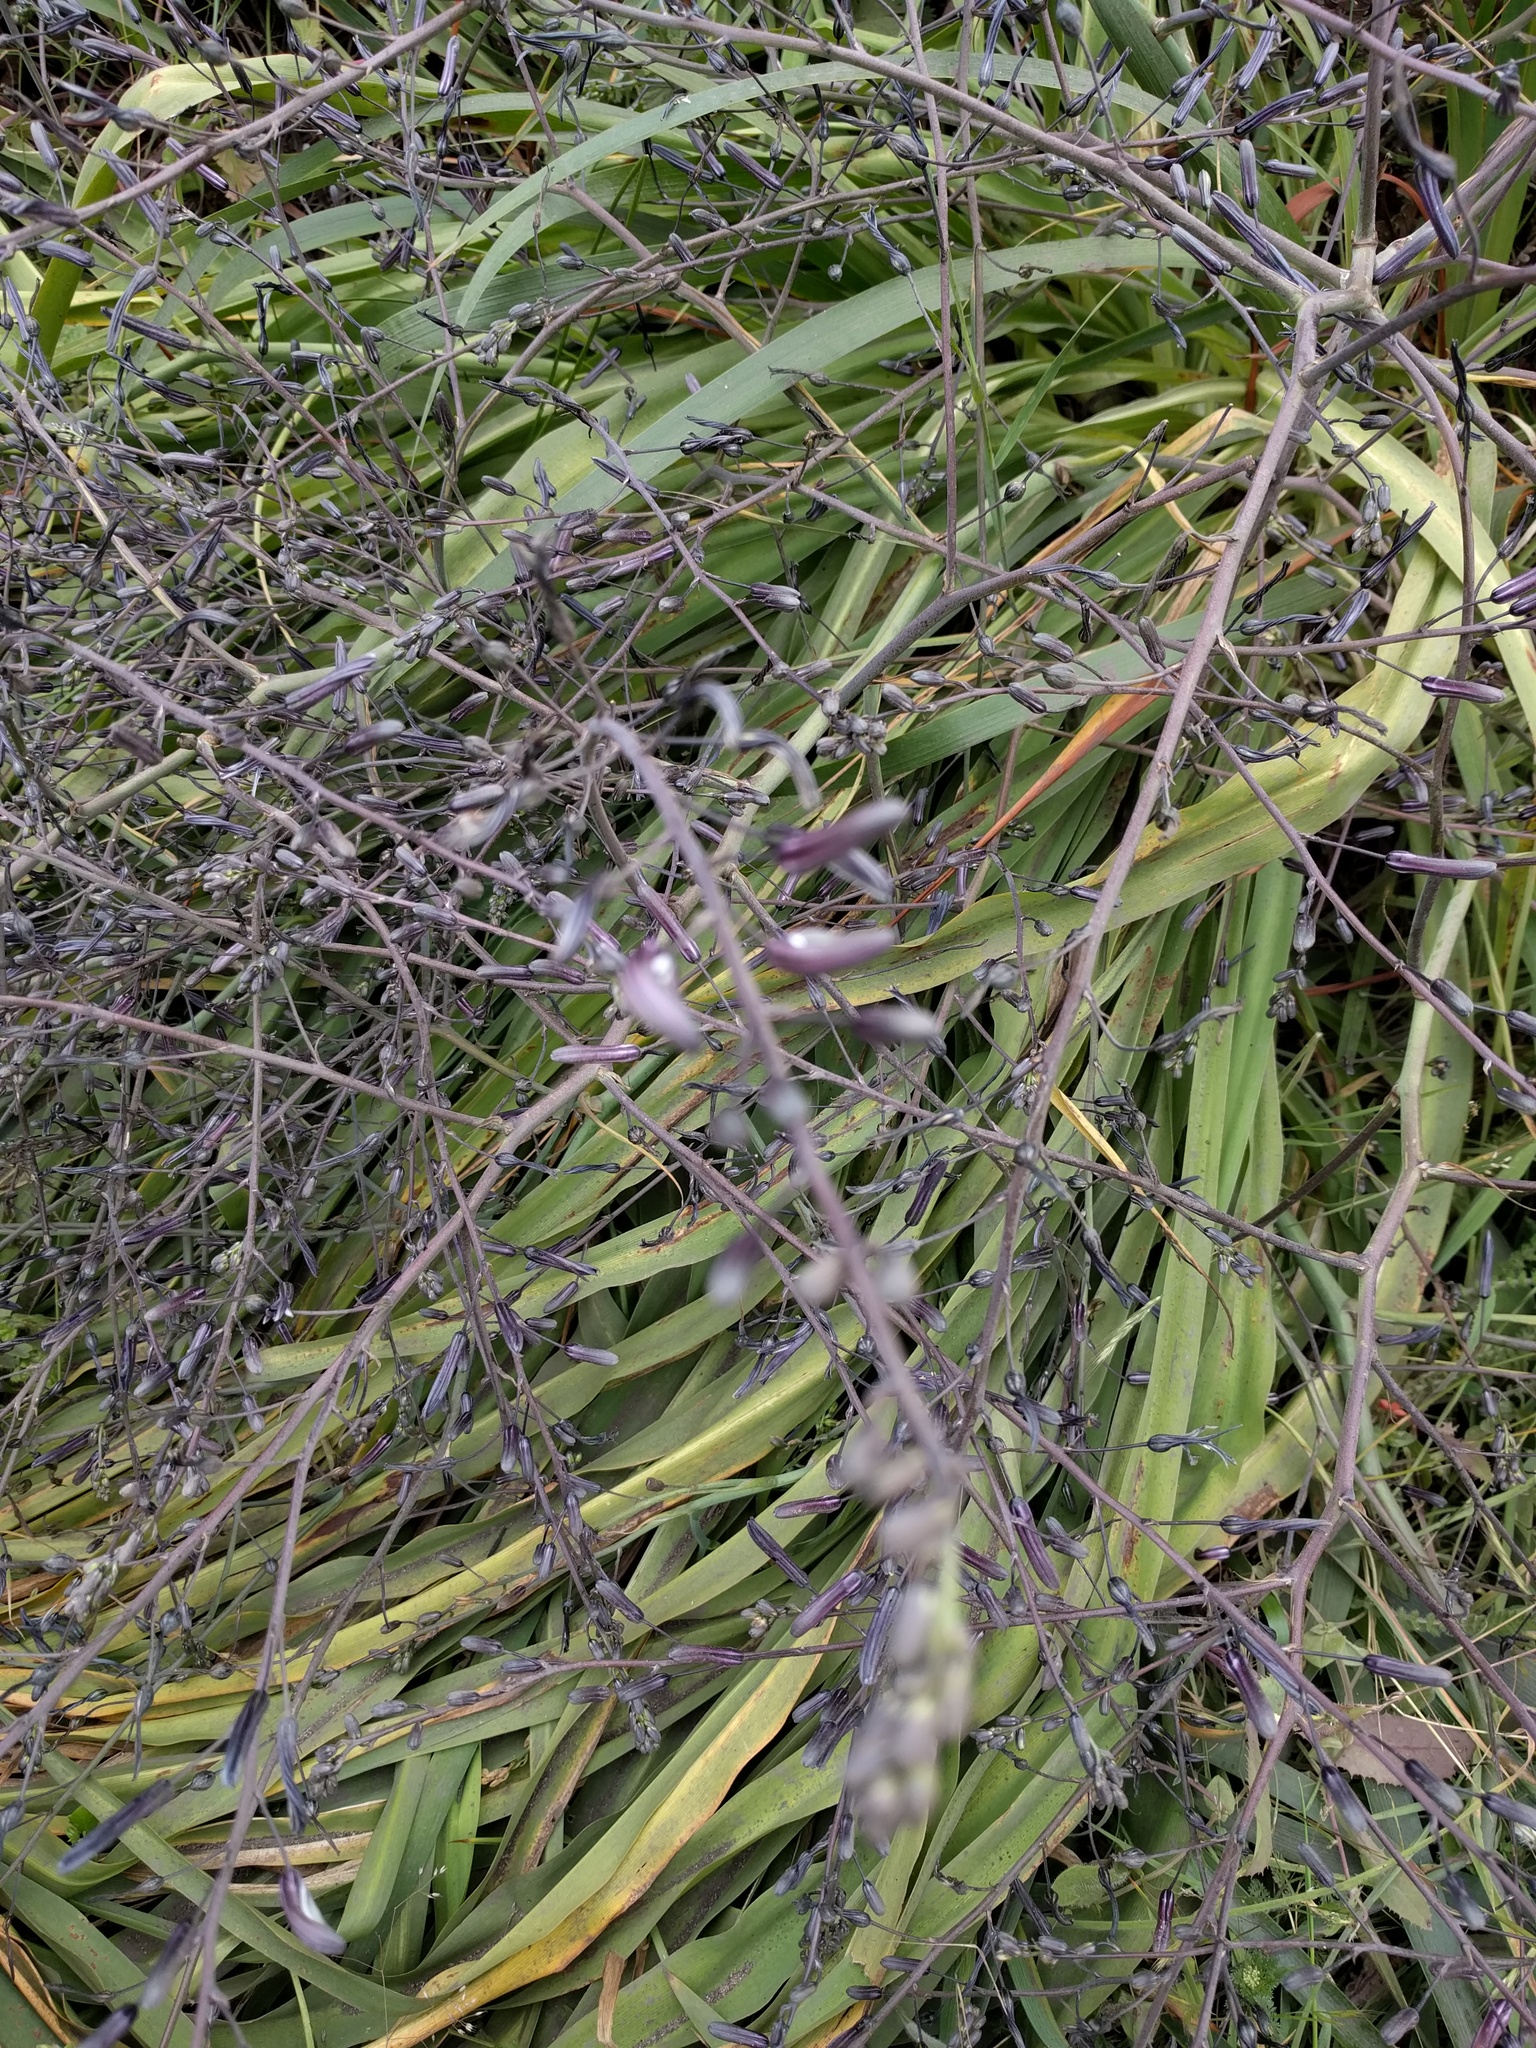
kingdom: Plantae
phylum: Tracheophyta
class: Liliopsida
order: Asparagales
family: Asparagaceae
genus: Chlorogalum
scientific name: Chlorogalum pomeridianum
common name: Amole
